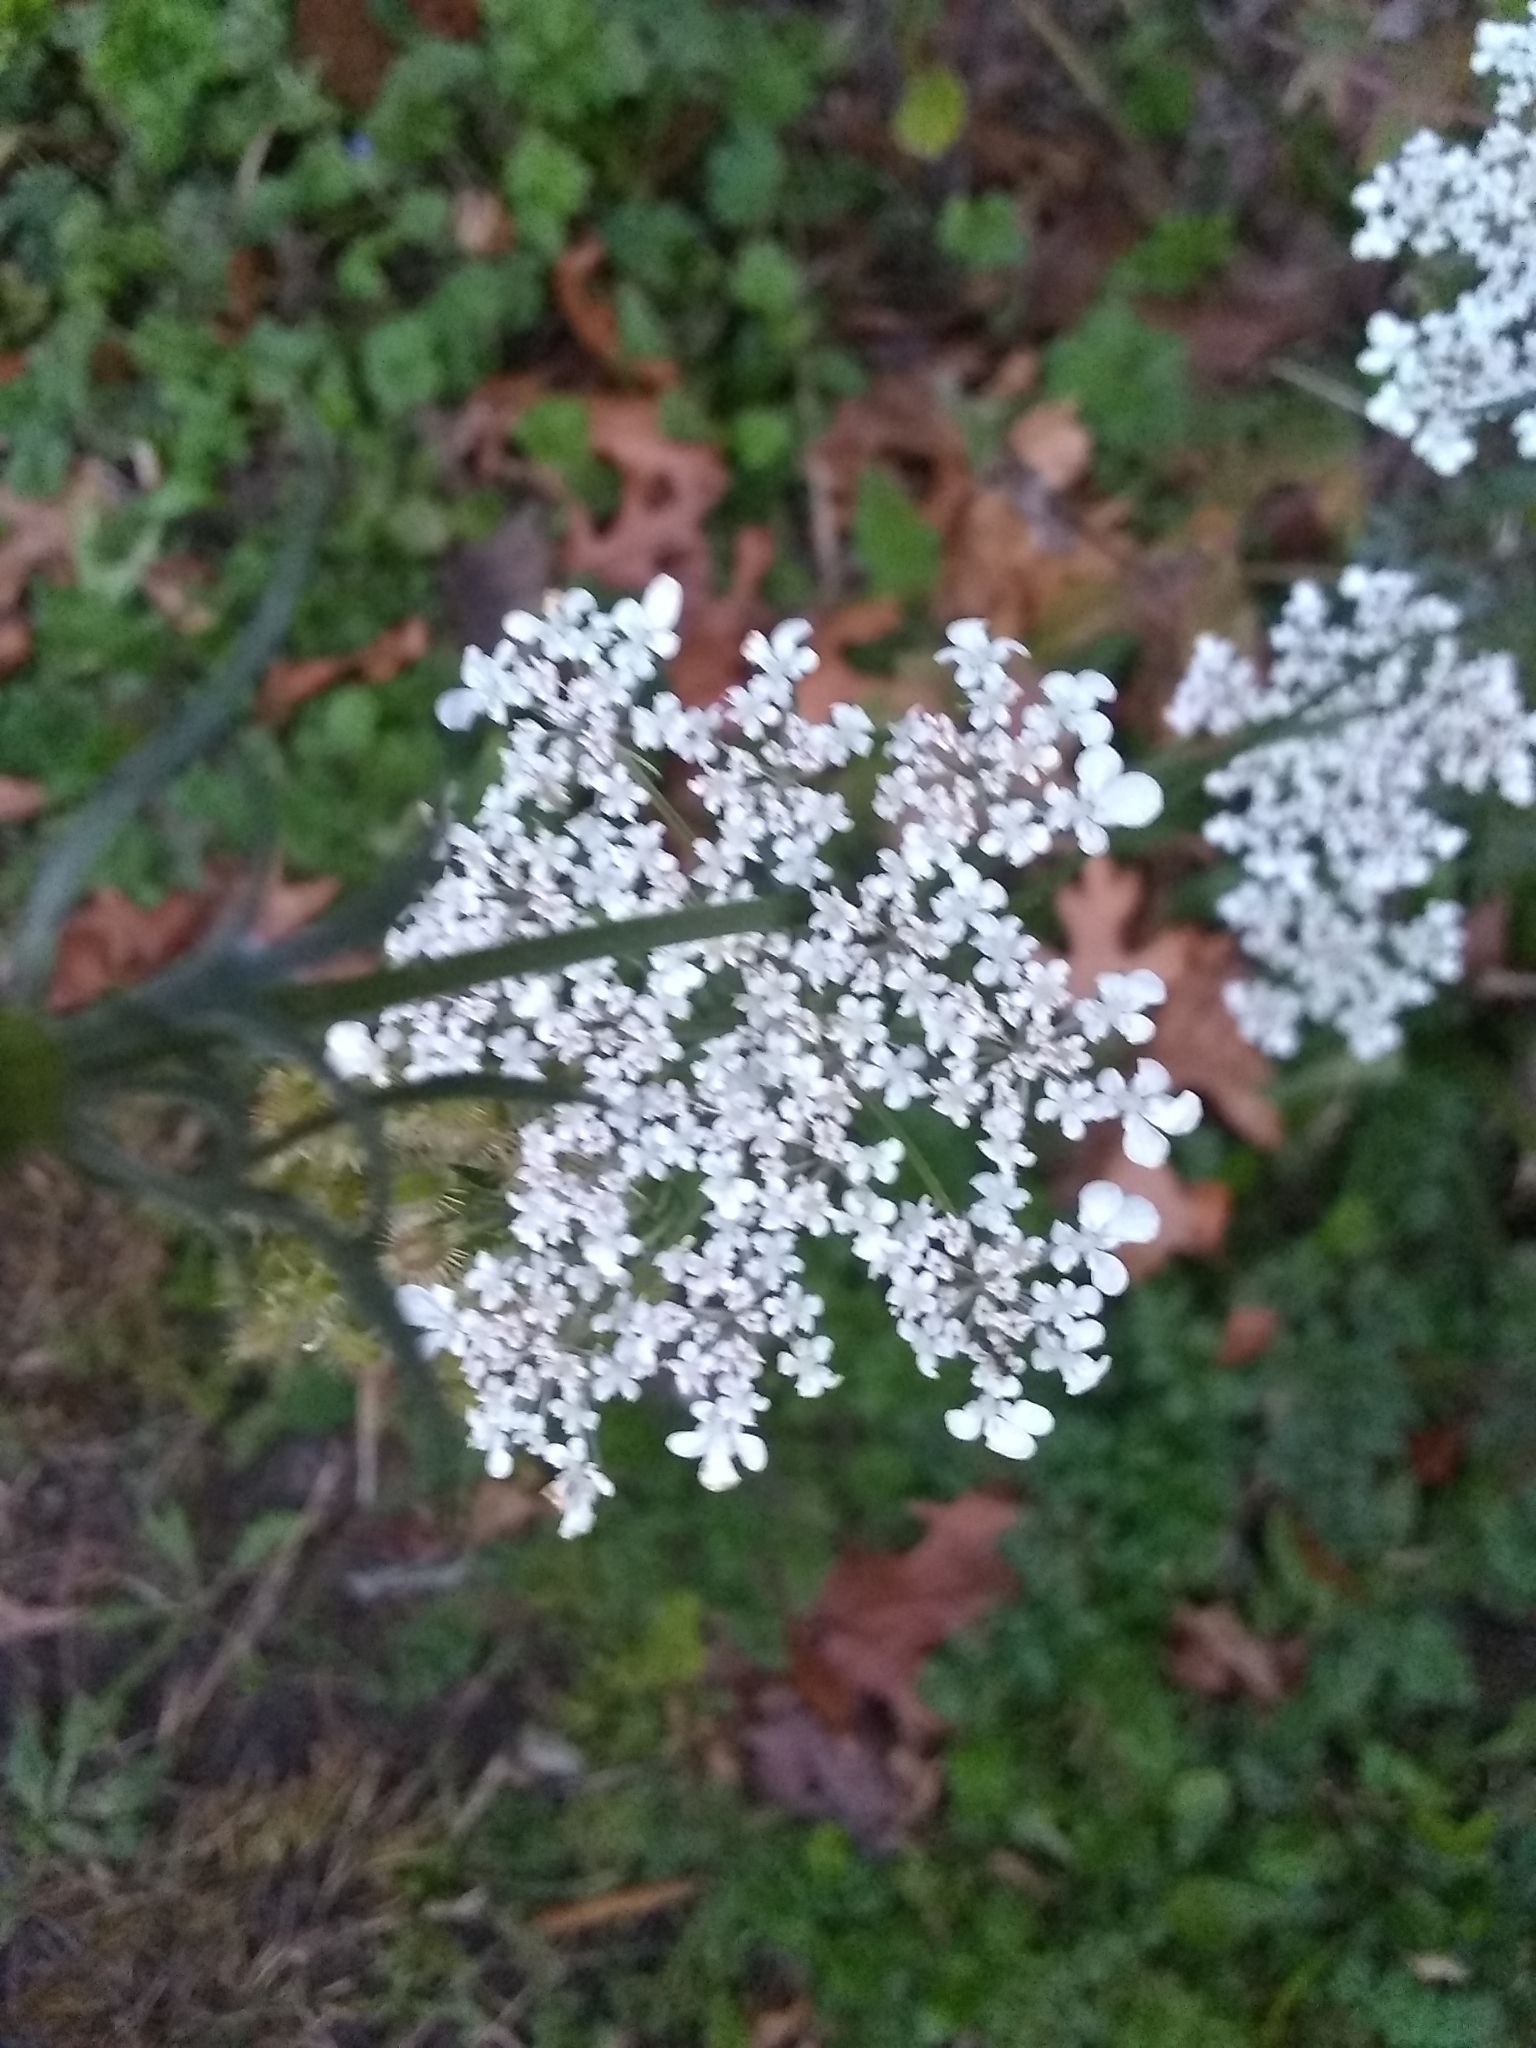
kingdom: Plantae
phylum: Tracheophyta
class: Magnoliopsida
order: Apiales
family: Apiaceae
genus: Daucus
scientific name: Daucus carota
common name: Wild carrot
